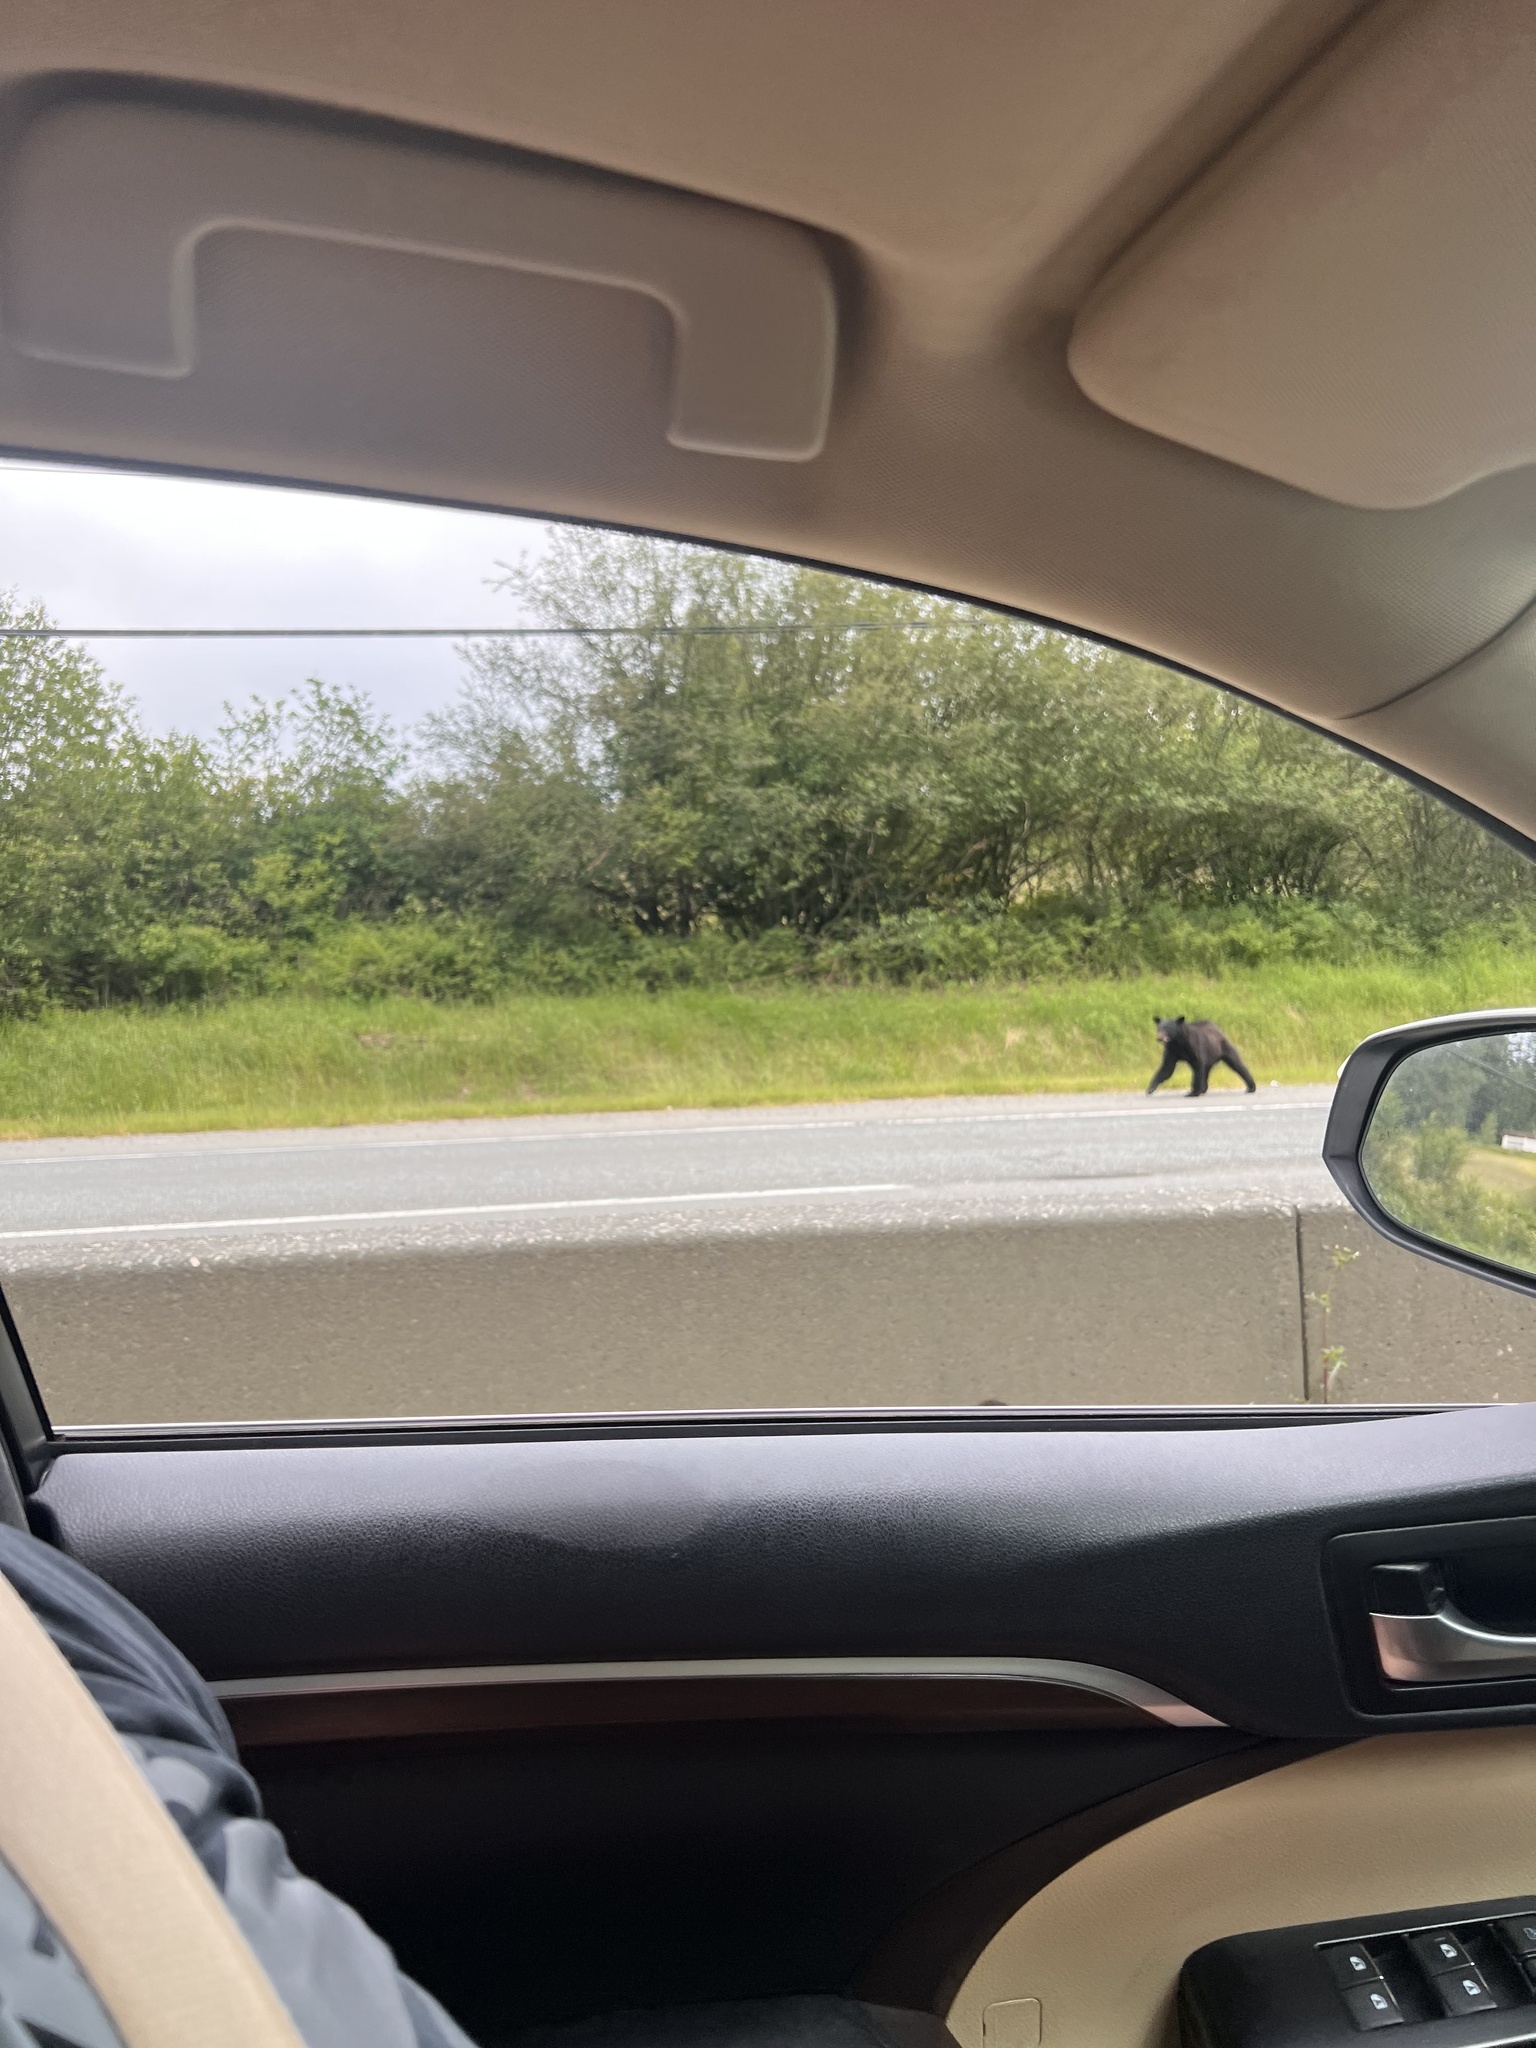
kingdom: Animalia
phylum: Chordata
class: Mammalia
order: Carnivora
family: Ursidae
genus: Ursus
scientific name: Ursus americanus
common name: American black bear
